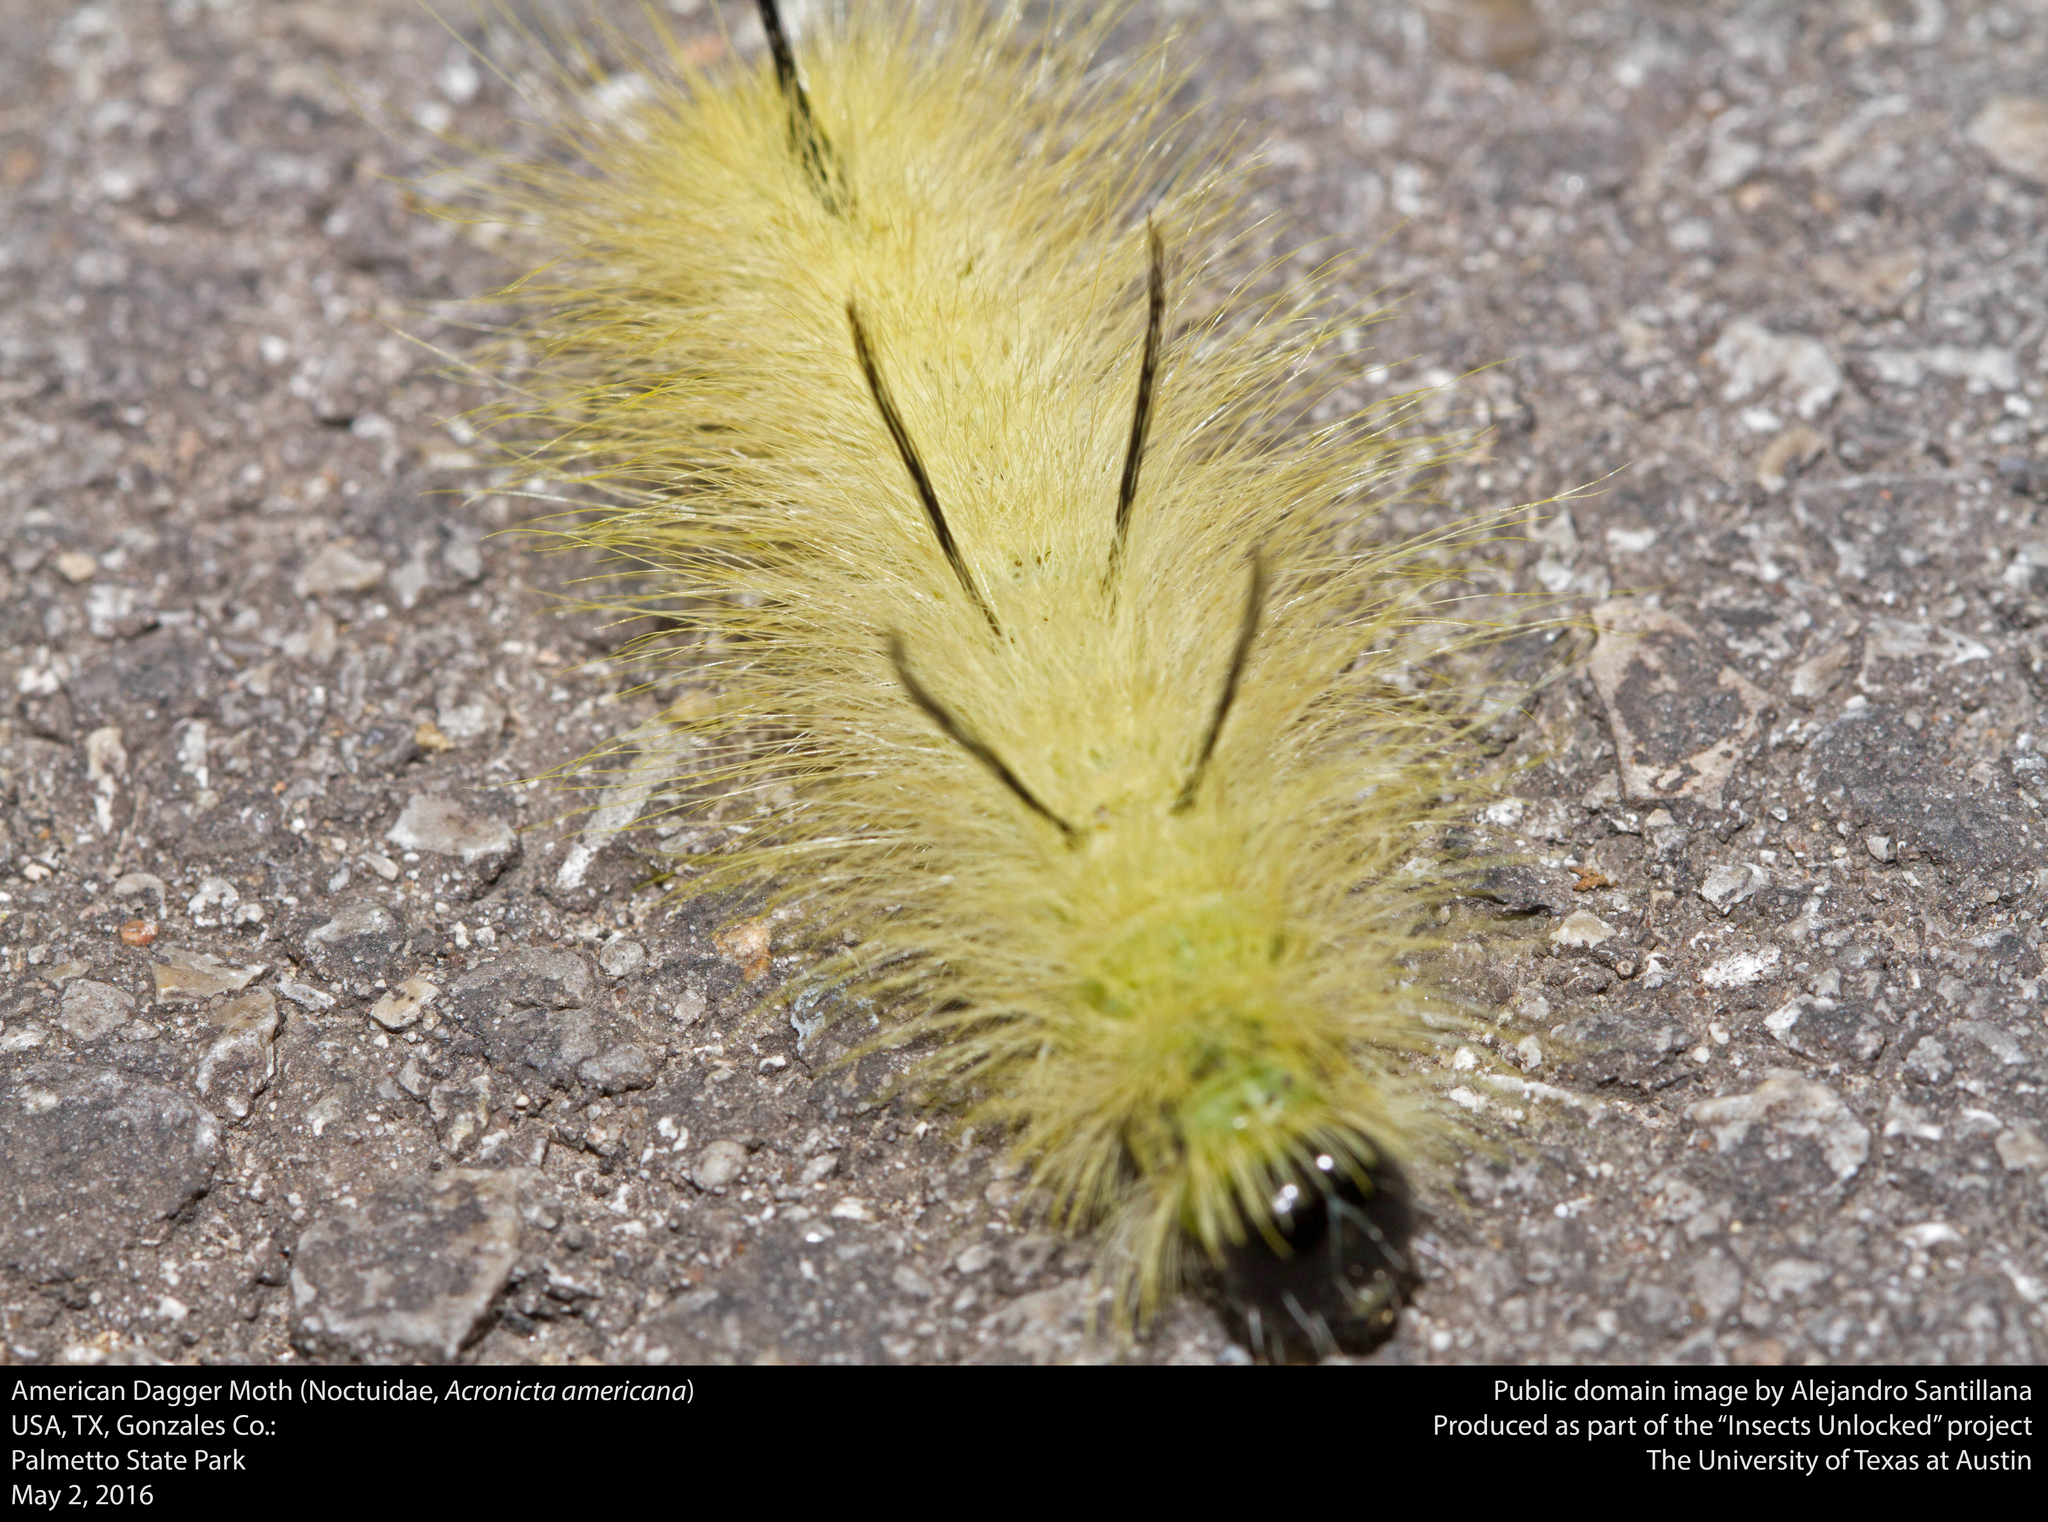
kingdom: Animalia
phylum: Arthropoda
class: Insecta
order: Lepidoptera
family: Noctuidae
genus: Acronicta
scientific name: Acronicta americana
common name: American dagger
